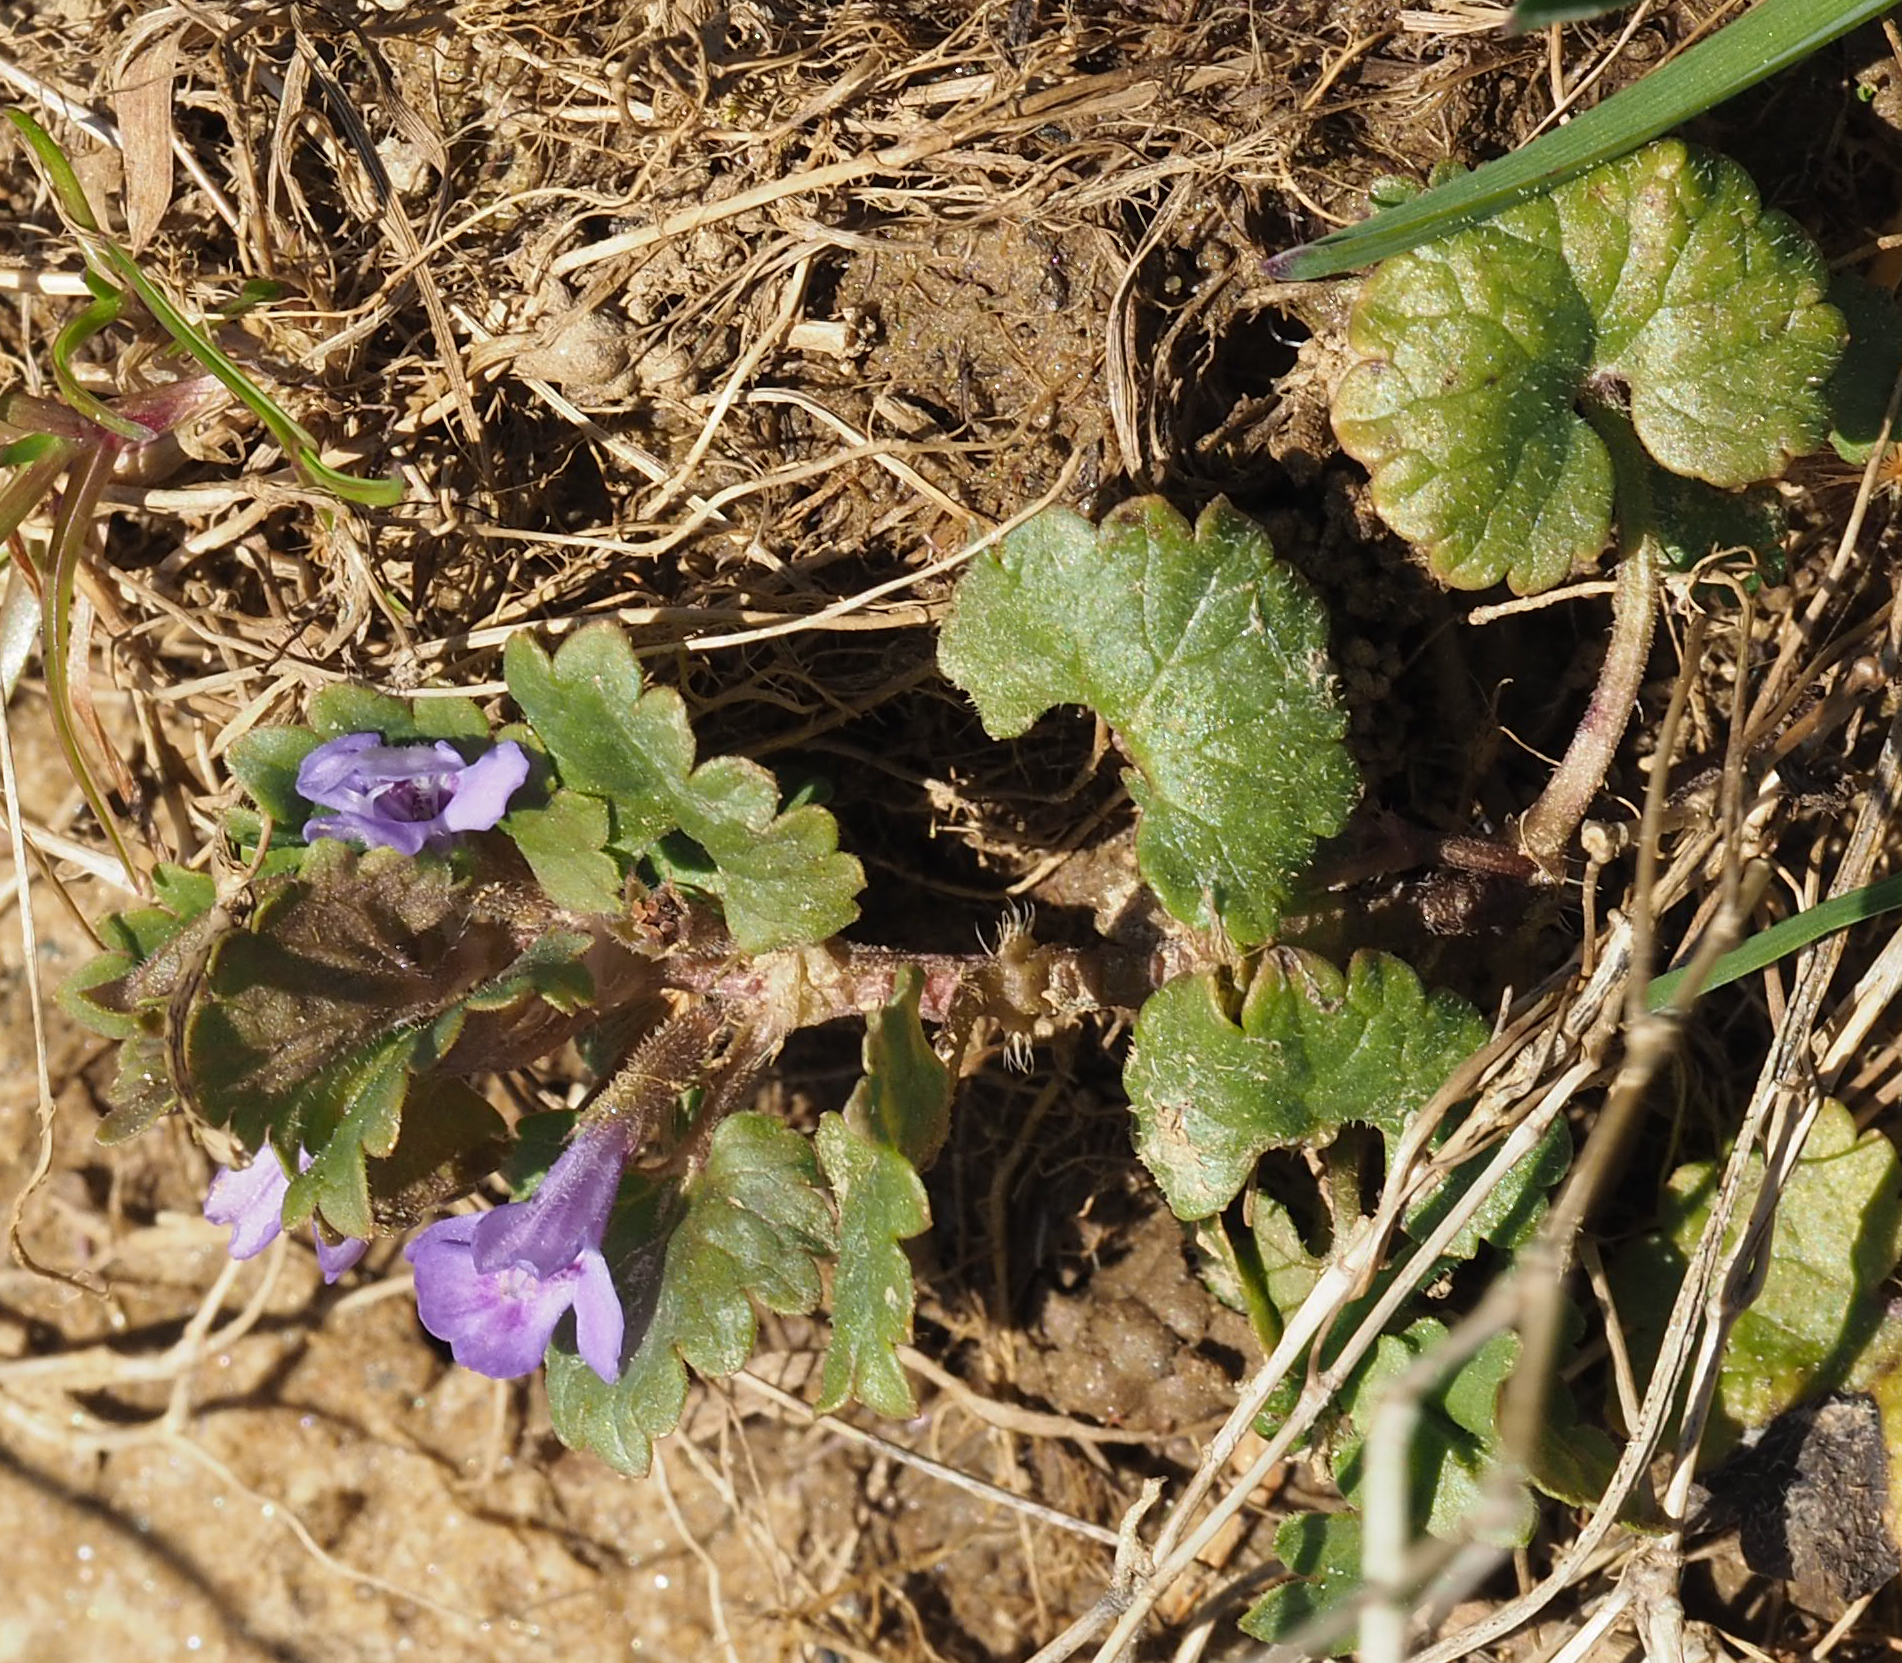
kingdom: Plantae
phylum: Tracheophyta
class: Magnoliopsida
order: Lamiales
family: Lamiaceae
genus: Glechoma
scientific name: Glechoma hederacea
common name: Ground ivy
